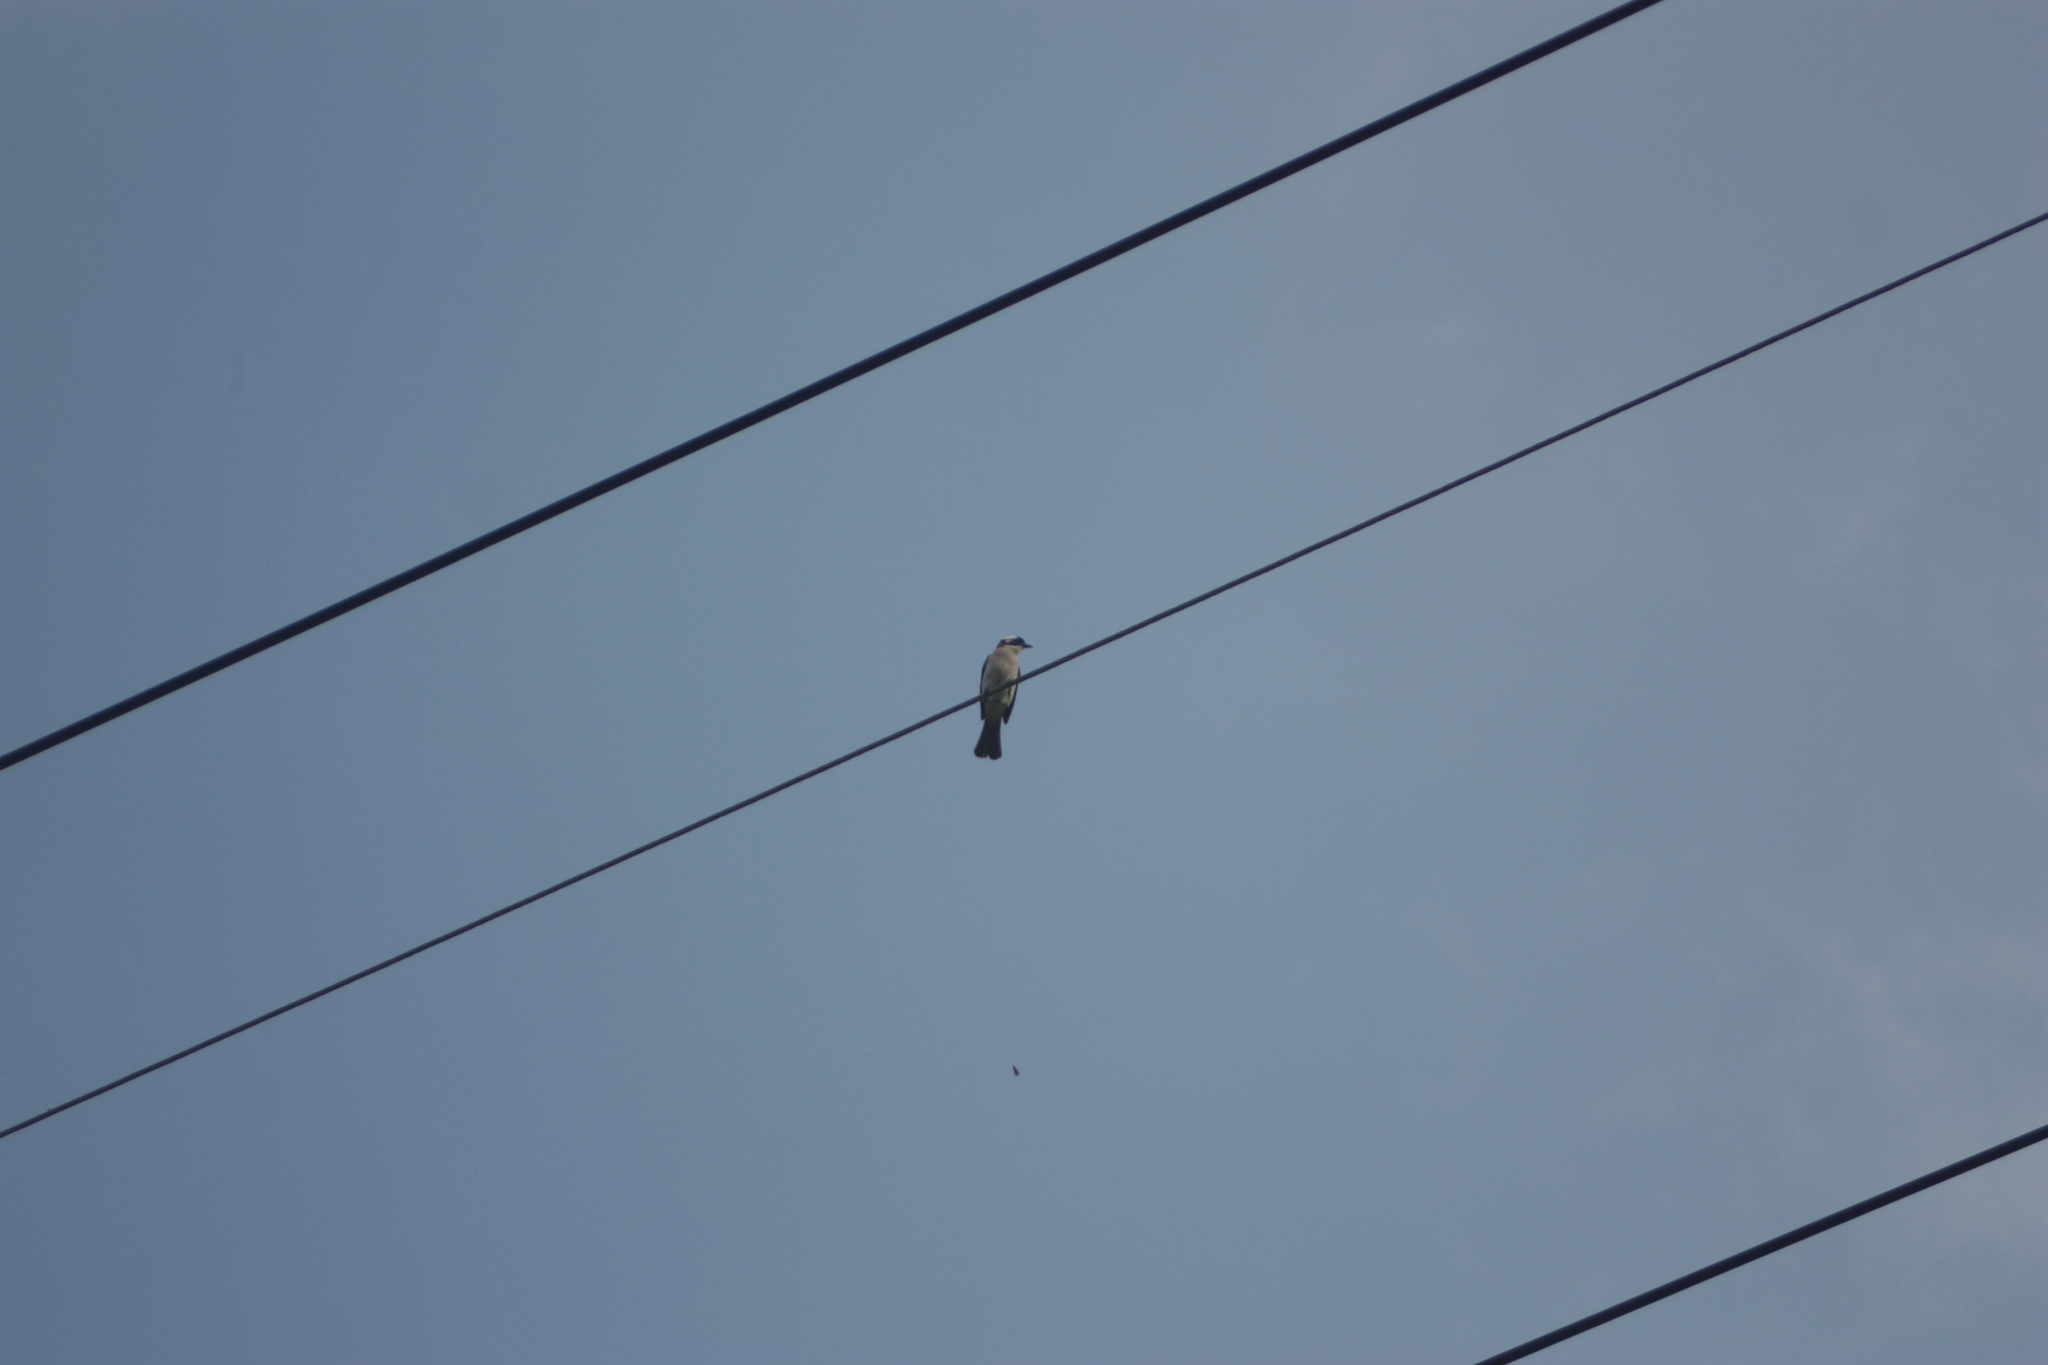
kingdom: Animalia
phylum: Chordata
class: Aves
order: Passeriformes
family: Pycnonotidae
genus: Pycnonotus
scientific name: Pycnonotus sinensis
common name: Light-vented bulbul
